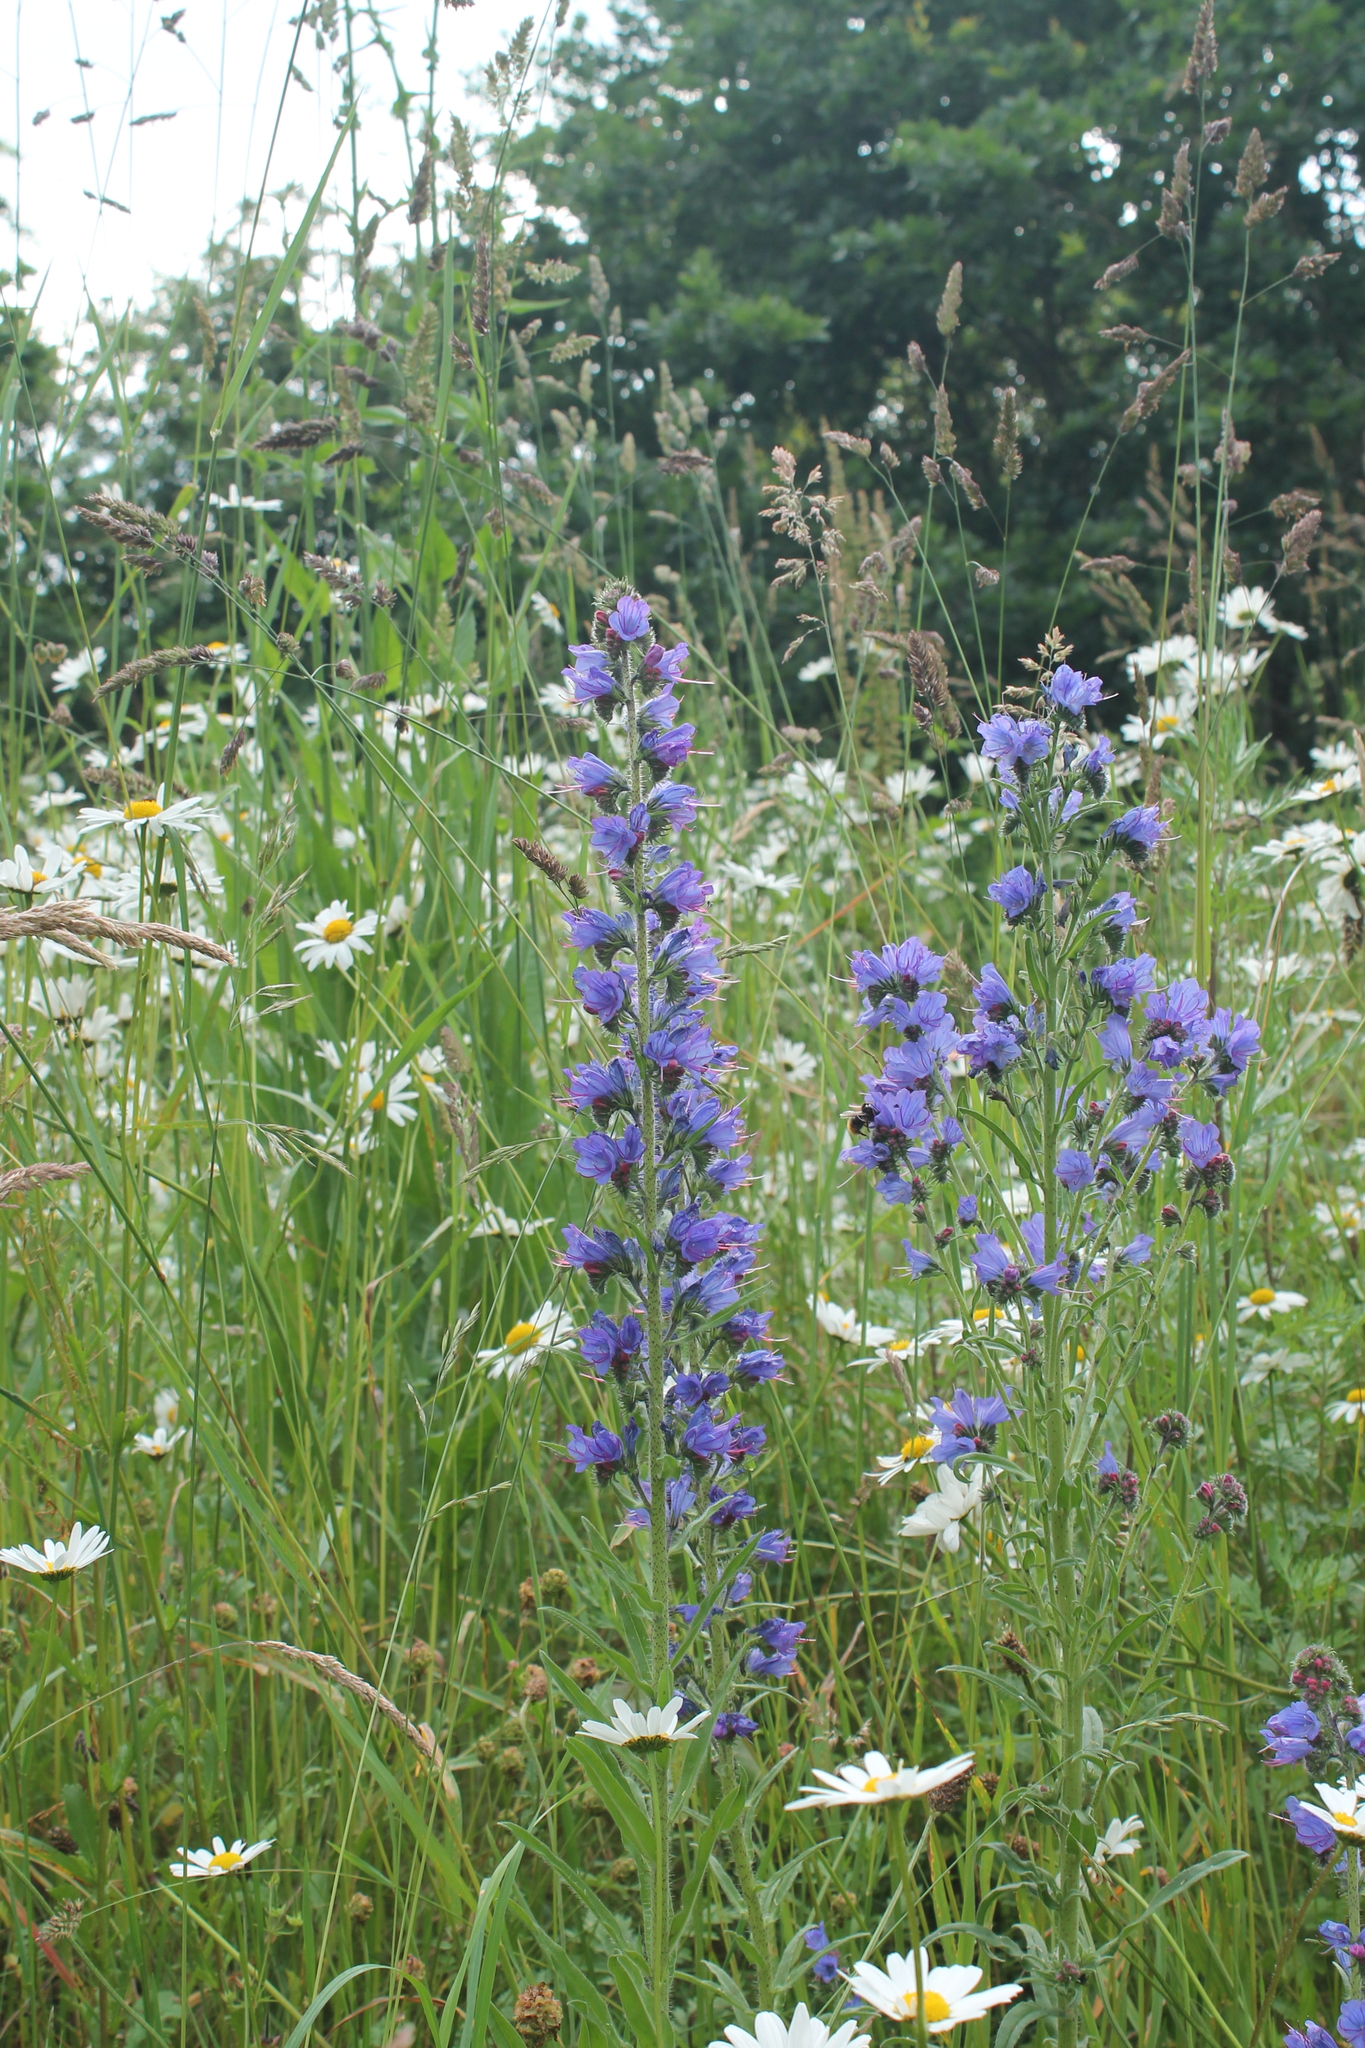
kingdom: Plantae
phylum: Tracheophyta
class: Magnoliopsida
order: Boraginales
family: Boraginaceae
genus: Echium
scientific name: Echium vulgare
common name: Common viper's bugloss
